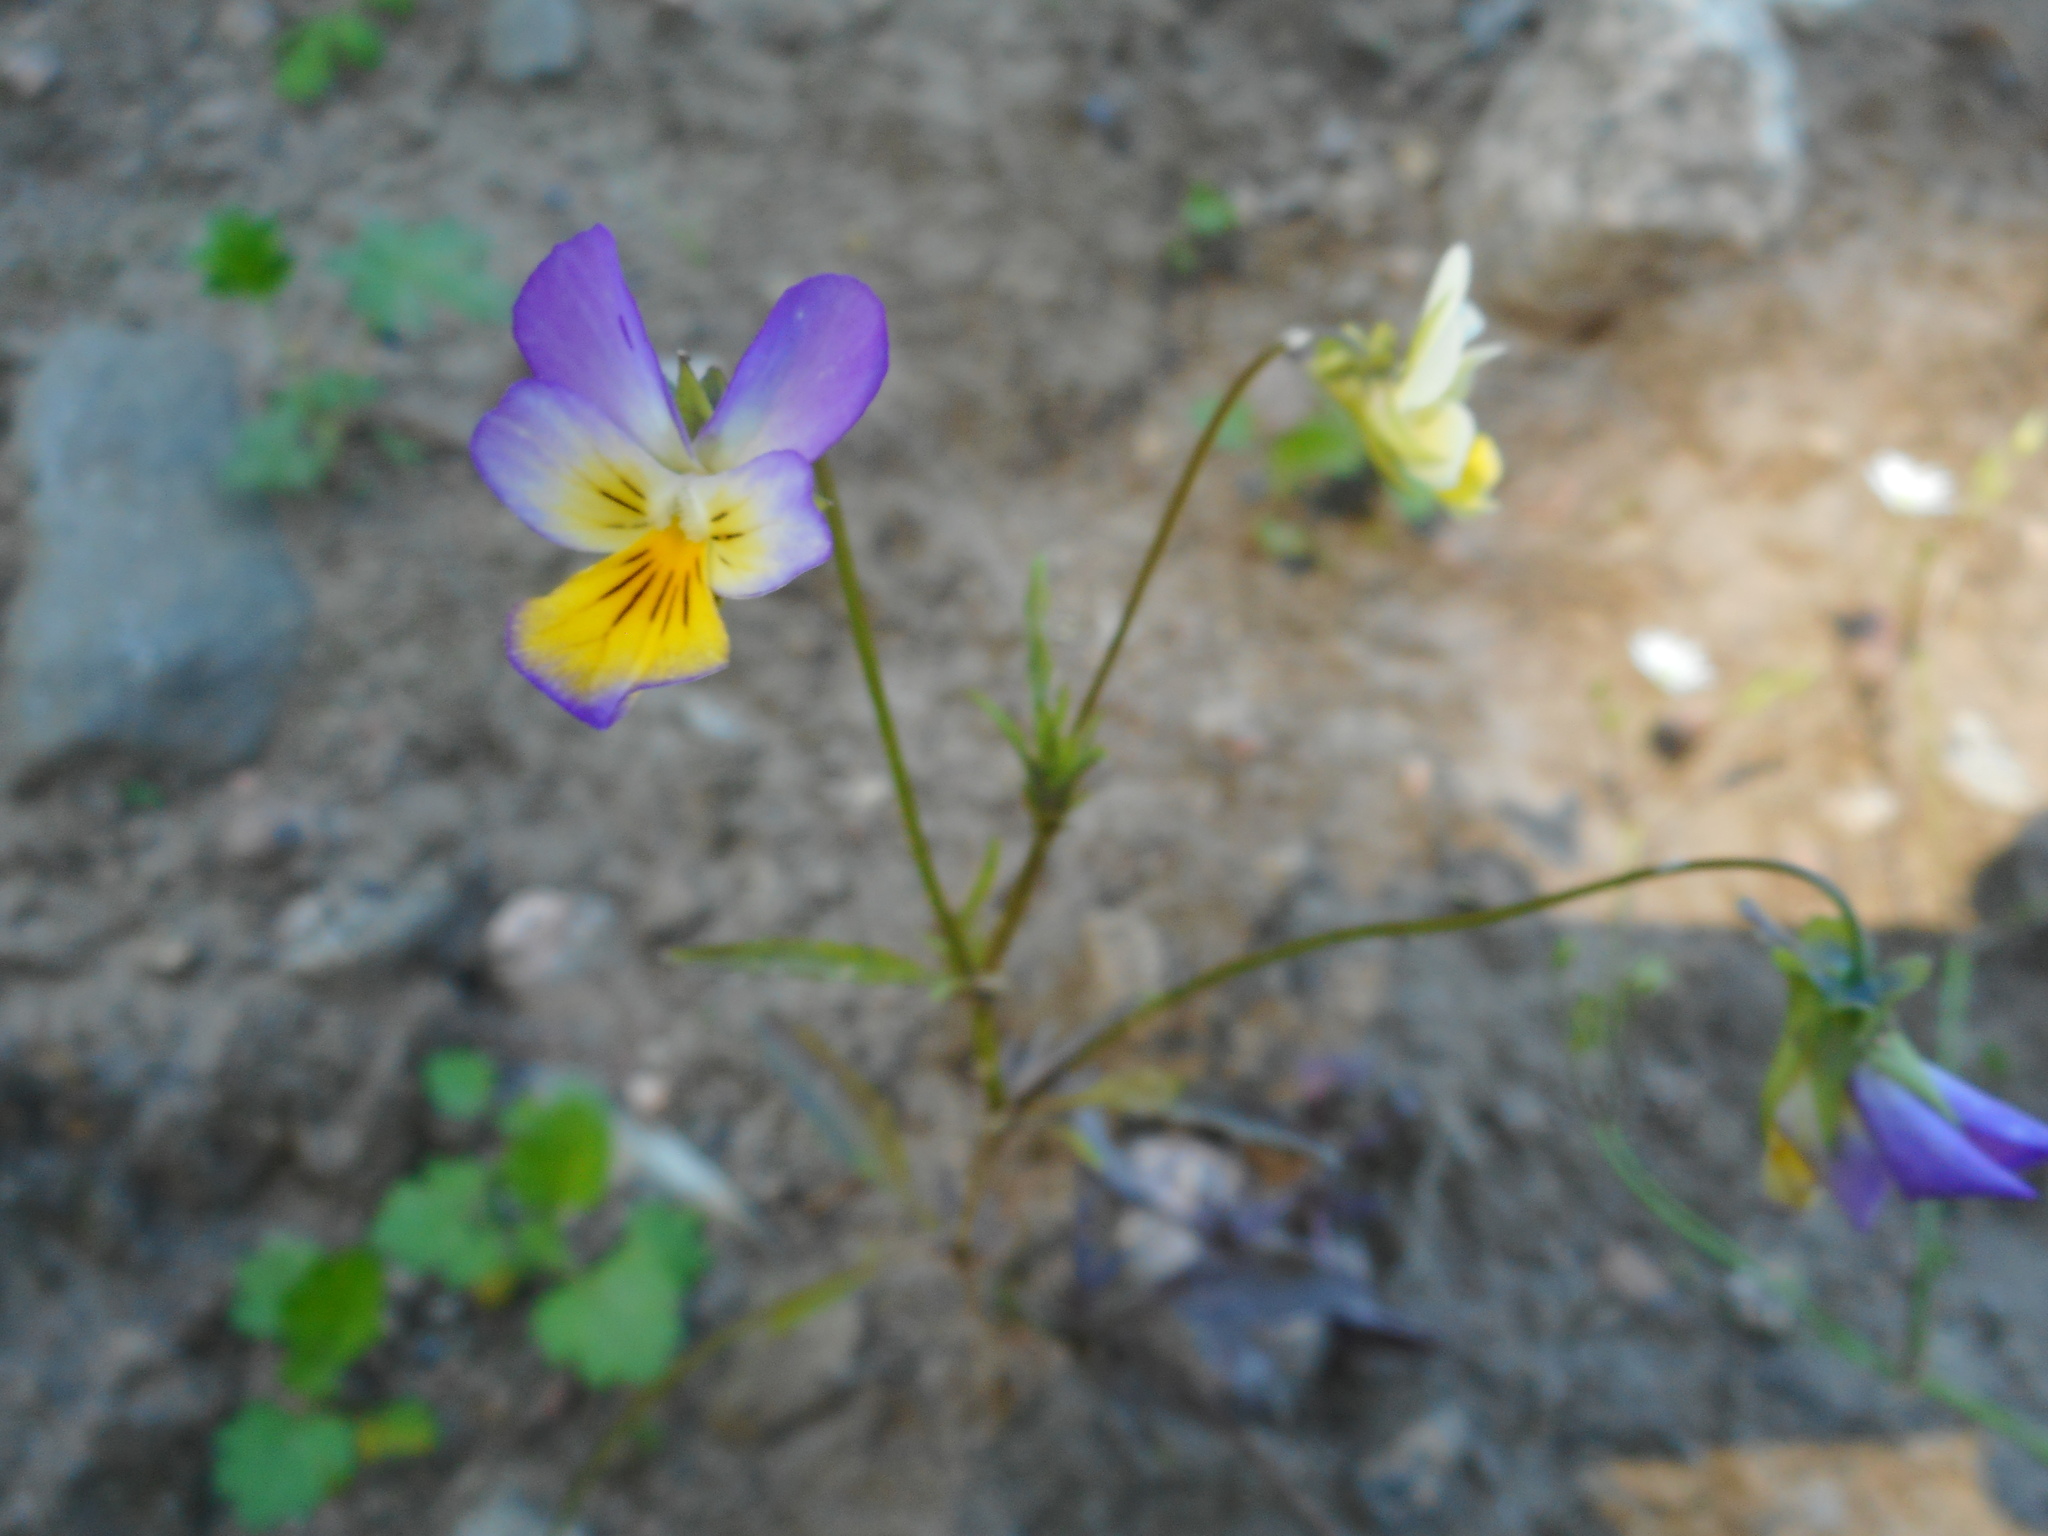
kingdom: Plantae
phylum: Tracheophyta
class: Magnoliopsida
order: Malpighiales
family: Violaceae
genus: Viola
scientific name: Viola tricolor
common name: Pansy
